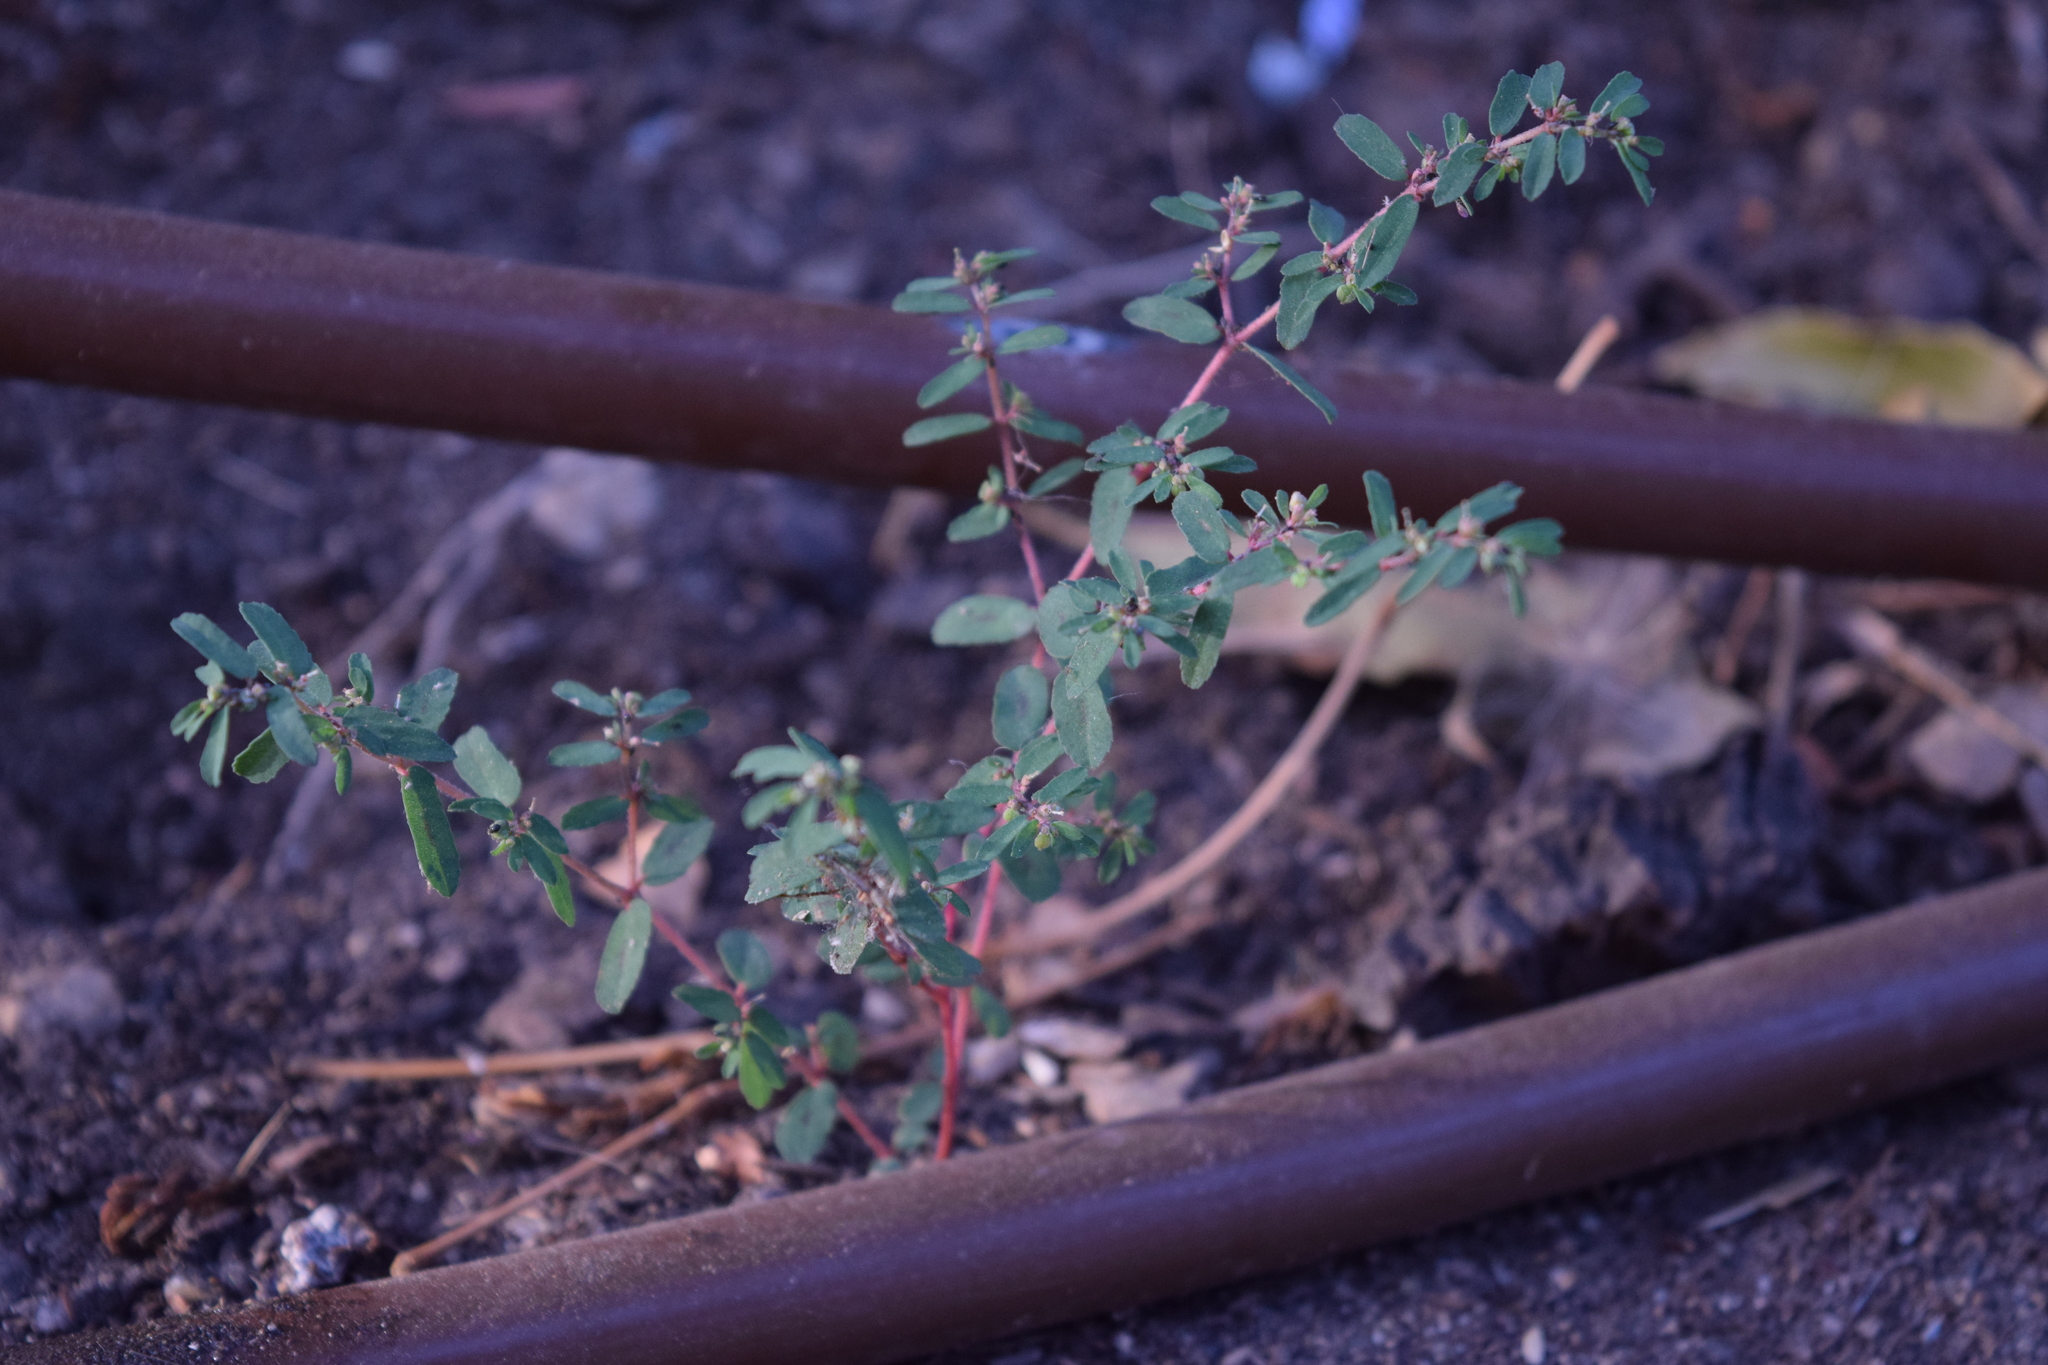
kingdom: Plantae
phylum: Tracheophyta
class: Magnoliopsida
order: Malpighiales
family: Euphorbiaceae
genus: Euphorbia
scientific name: Euphorbia maculata
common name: Spotted spurge
